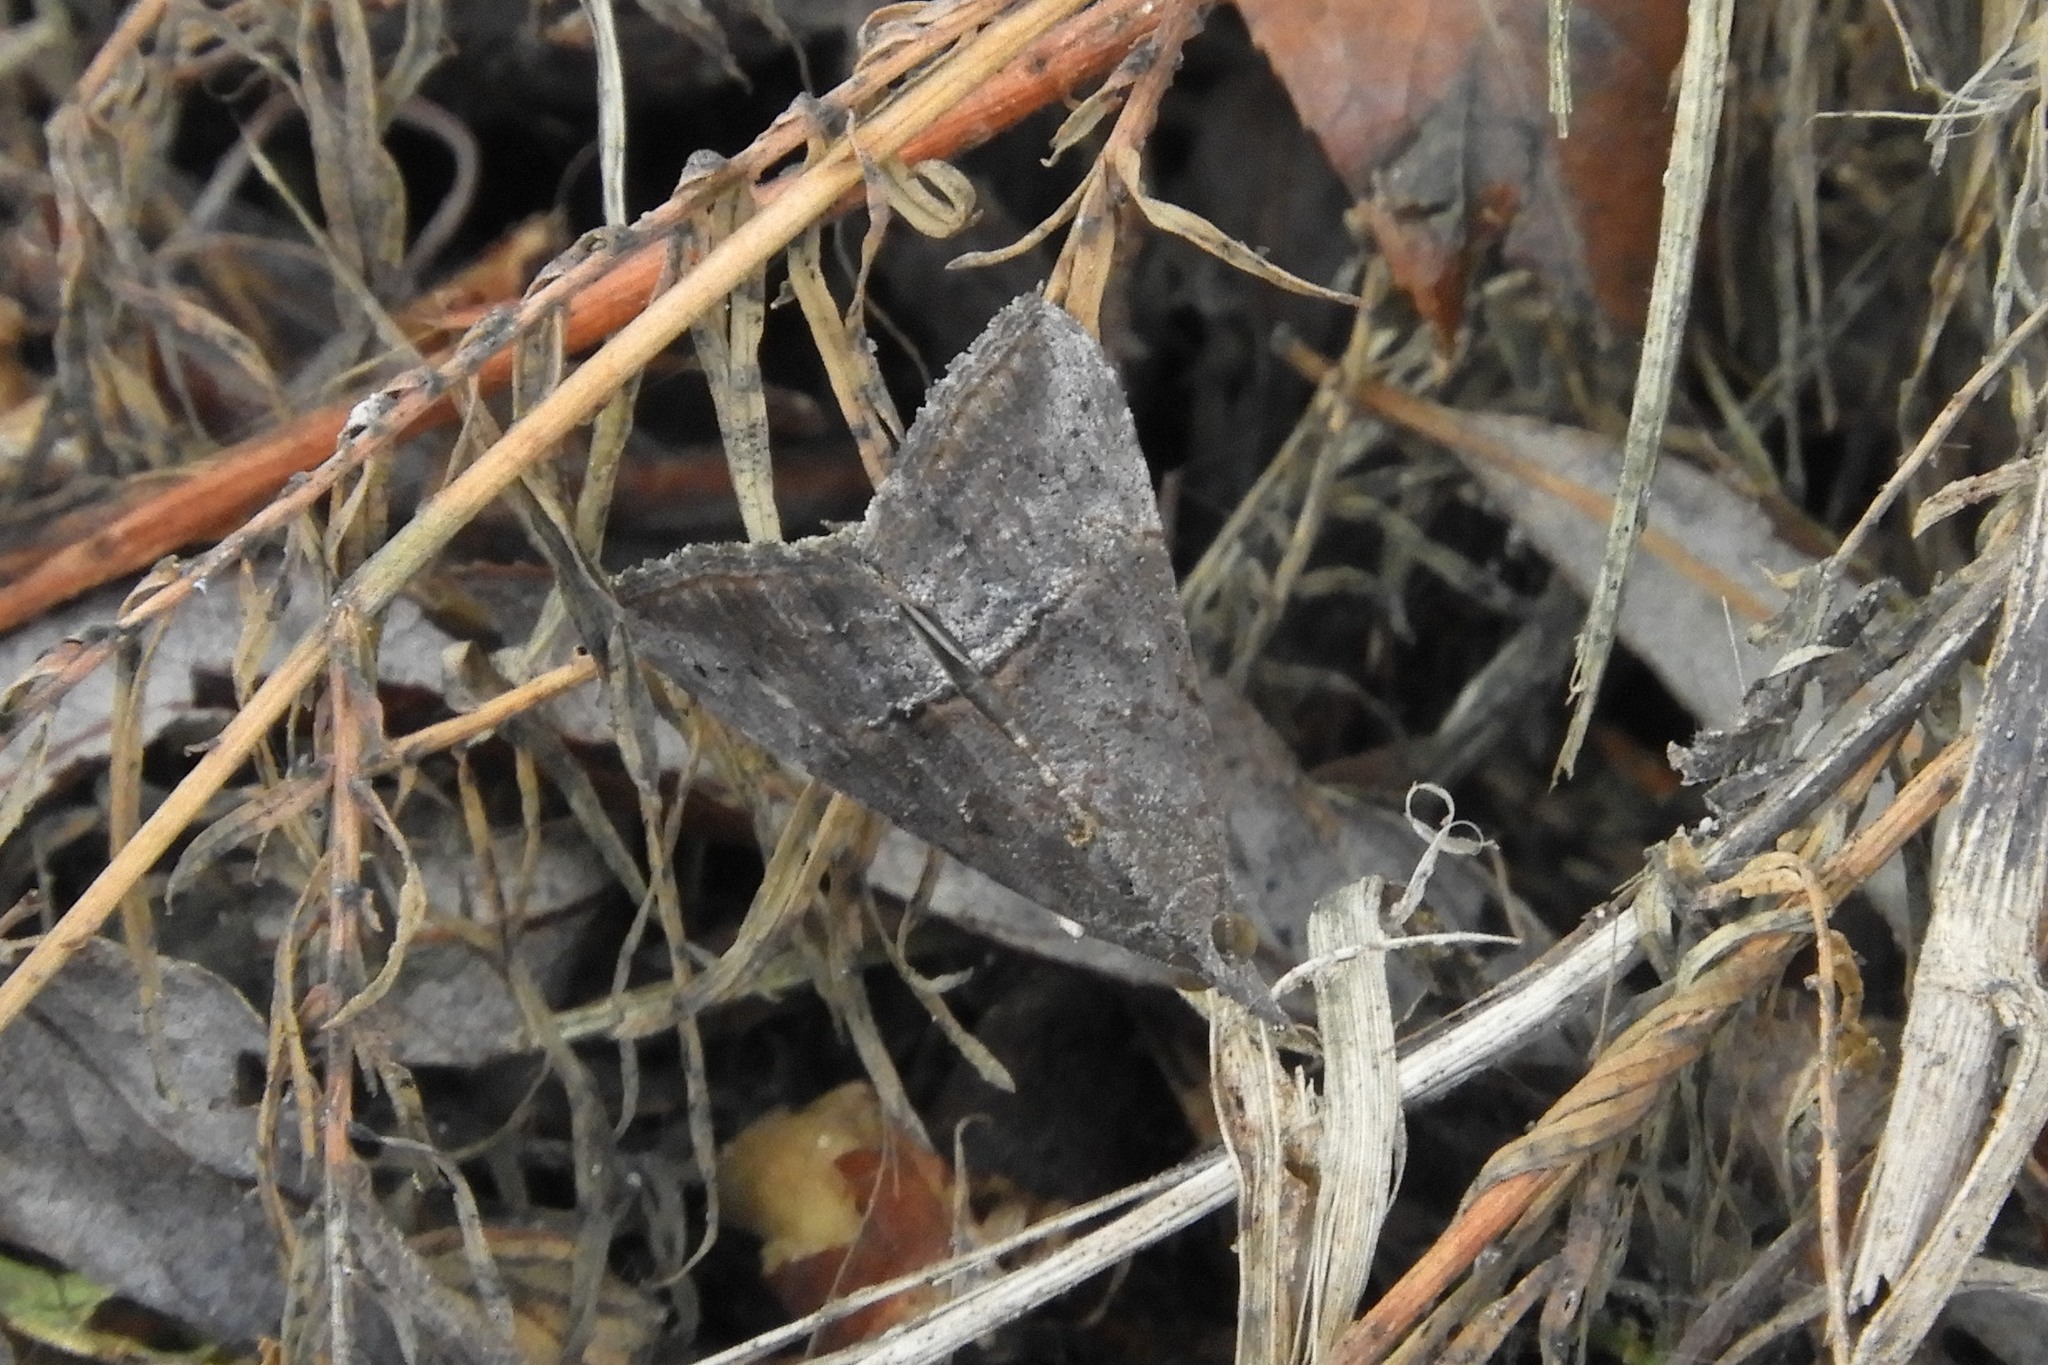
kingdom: Animalia
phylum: Arthropoda
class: Insecta
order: Lepidoptera
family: Erebidae
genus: Hypena
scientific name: Hypena scabra
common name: Green cloverworm
